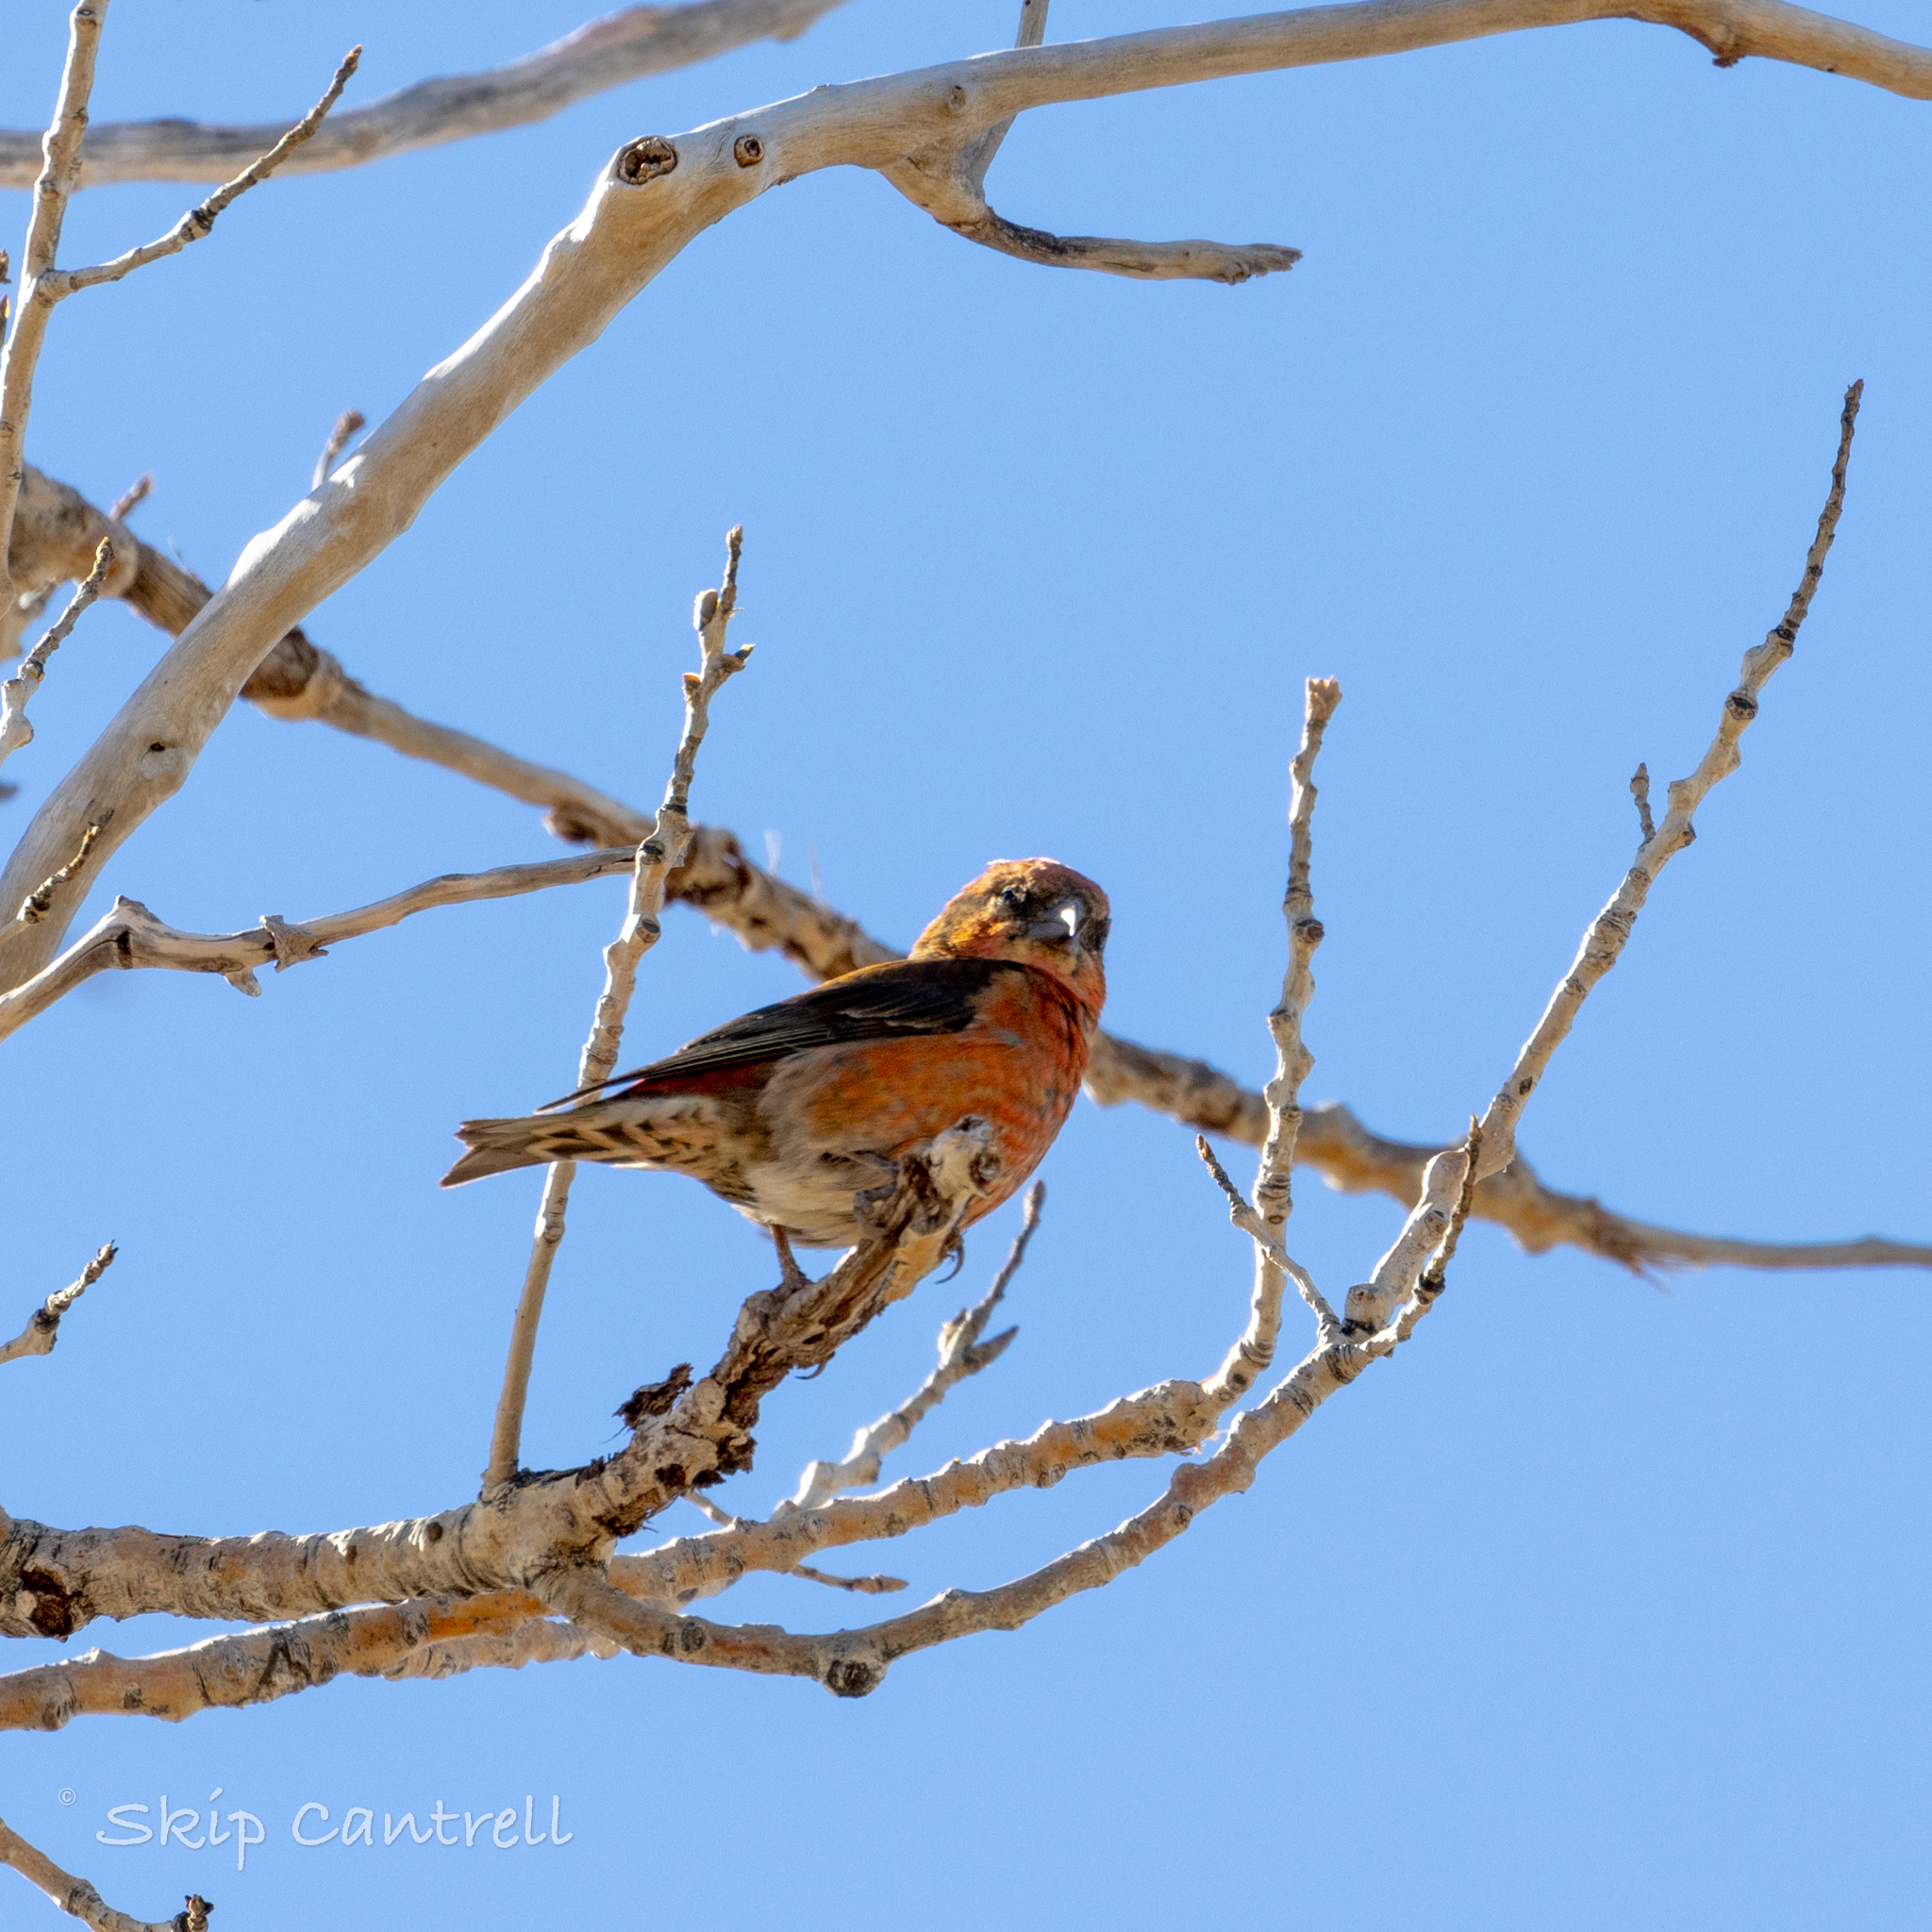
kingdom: Animalia
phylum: Chordata
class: Aves
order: Passeriformes
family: Fringillidae
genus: Loxia
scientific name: Loxia curvirostra
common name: Red crossbill
